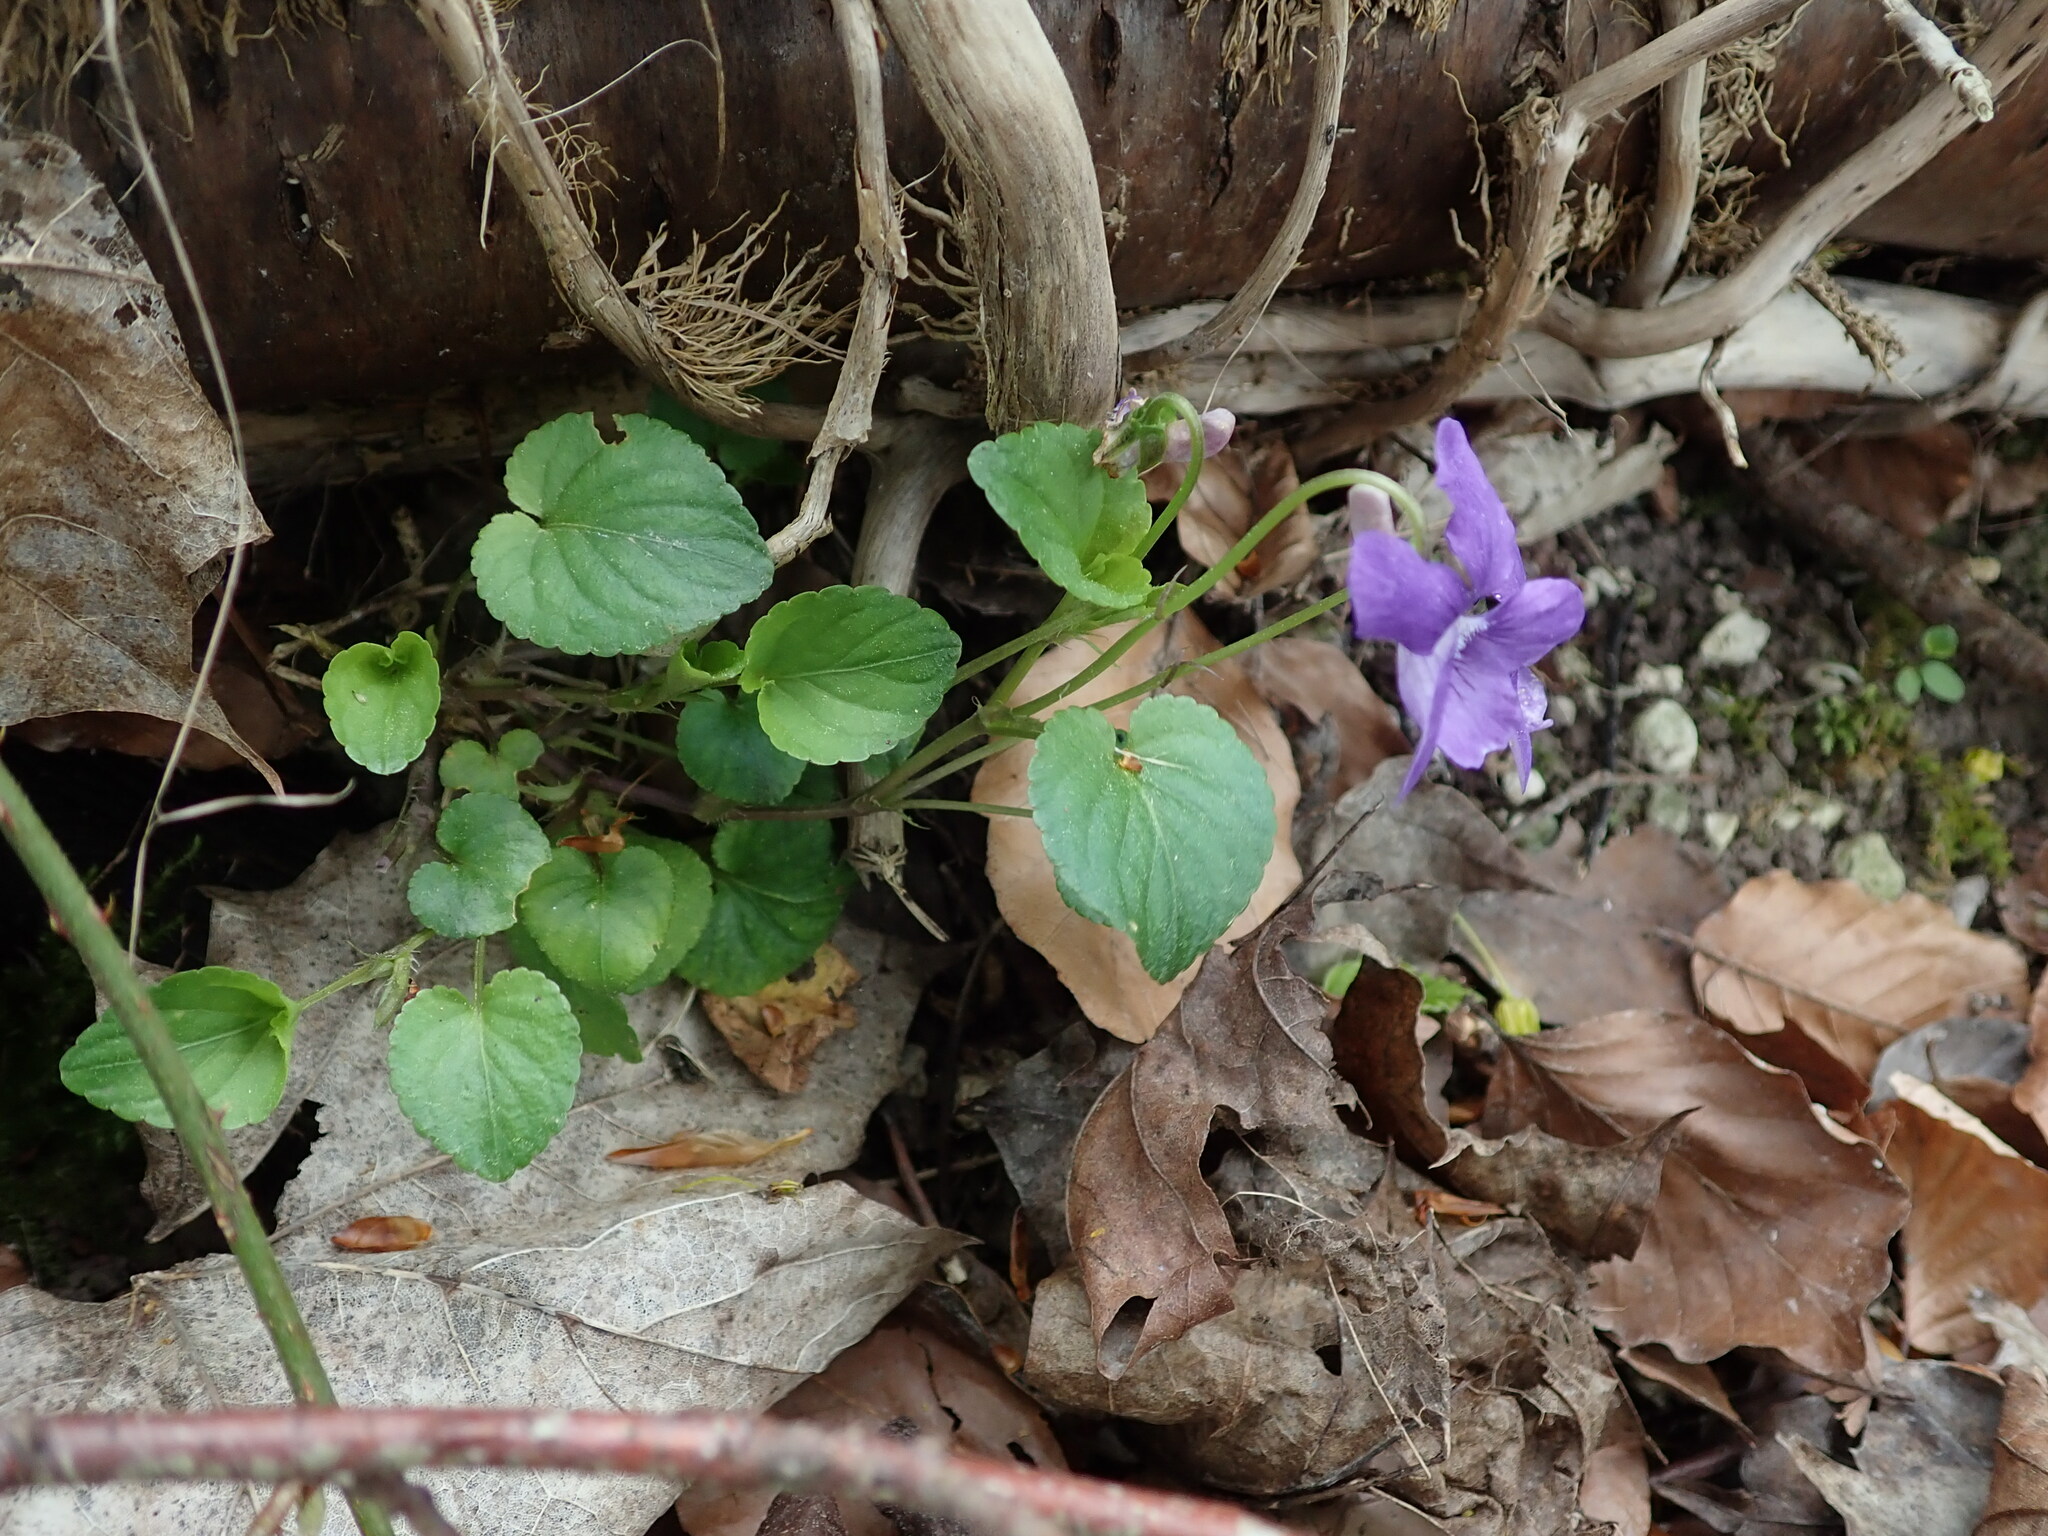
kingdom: Plantae
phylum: Tracheophyta
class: Magnoliopsida
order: Malpighiales
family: Violaceae
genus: Viola
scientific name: Viola riviniana
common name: Common dog-violet
